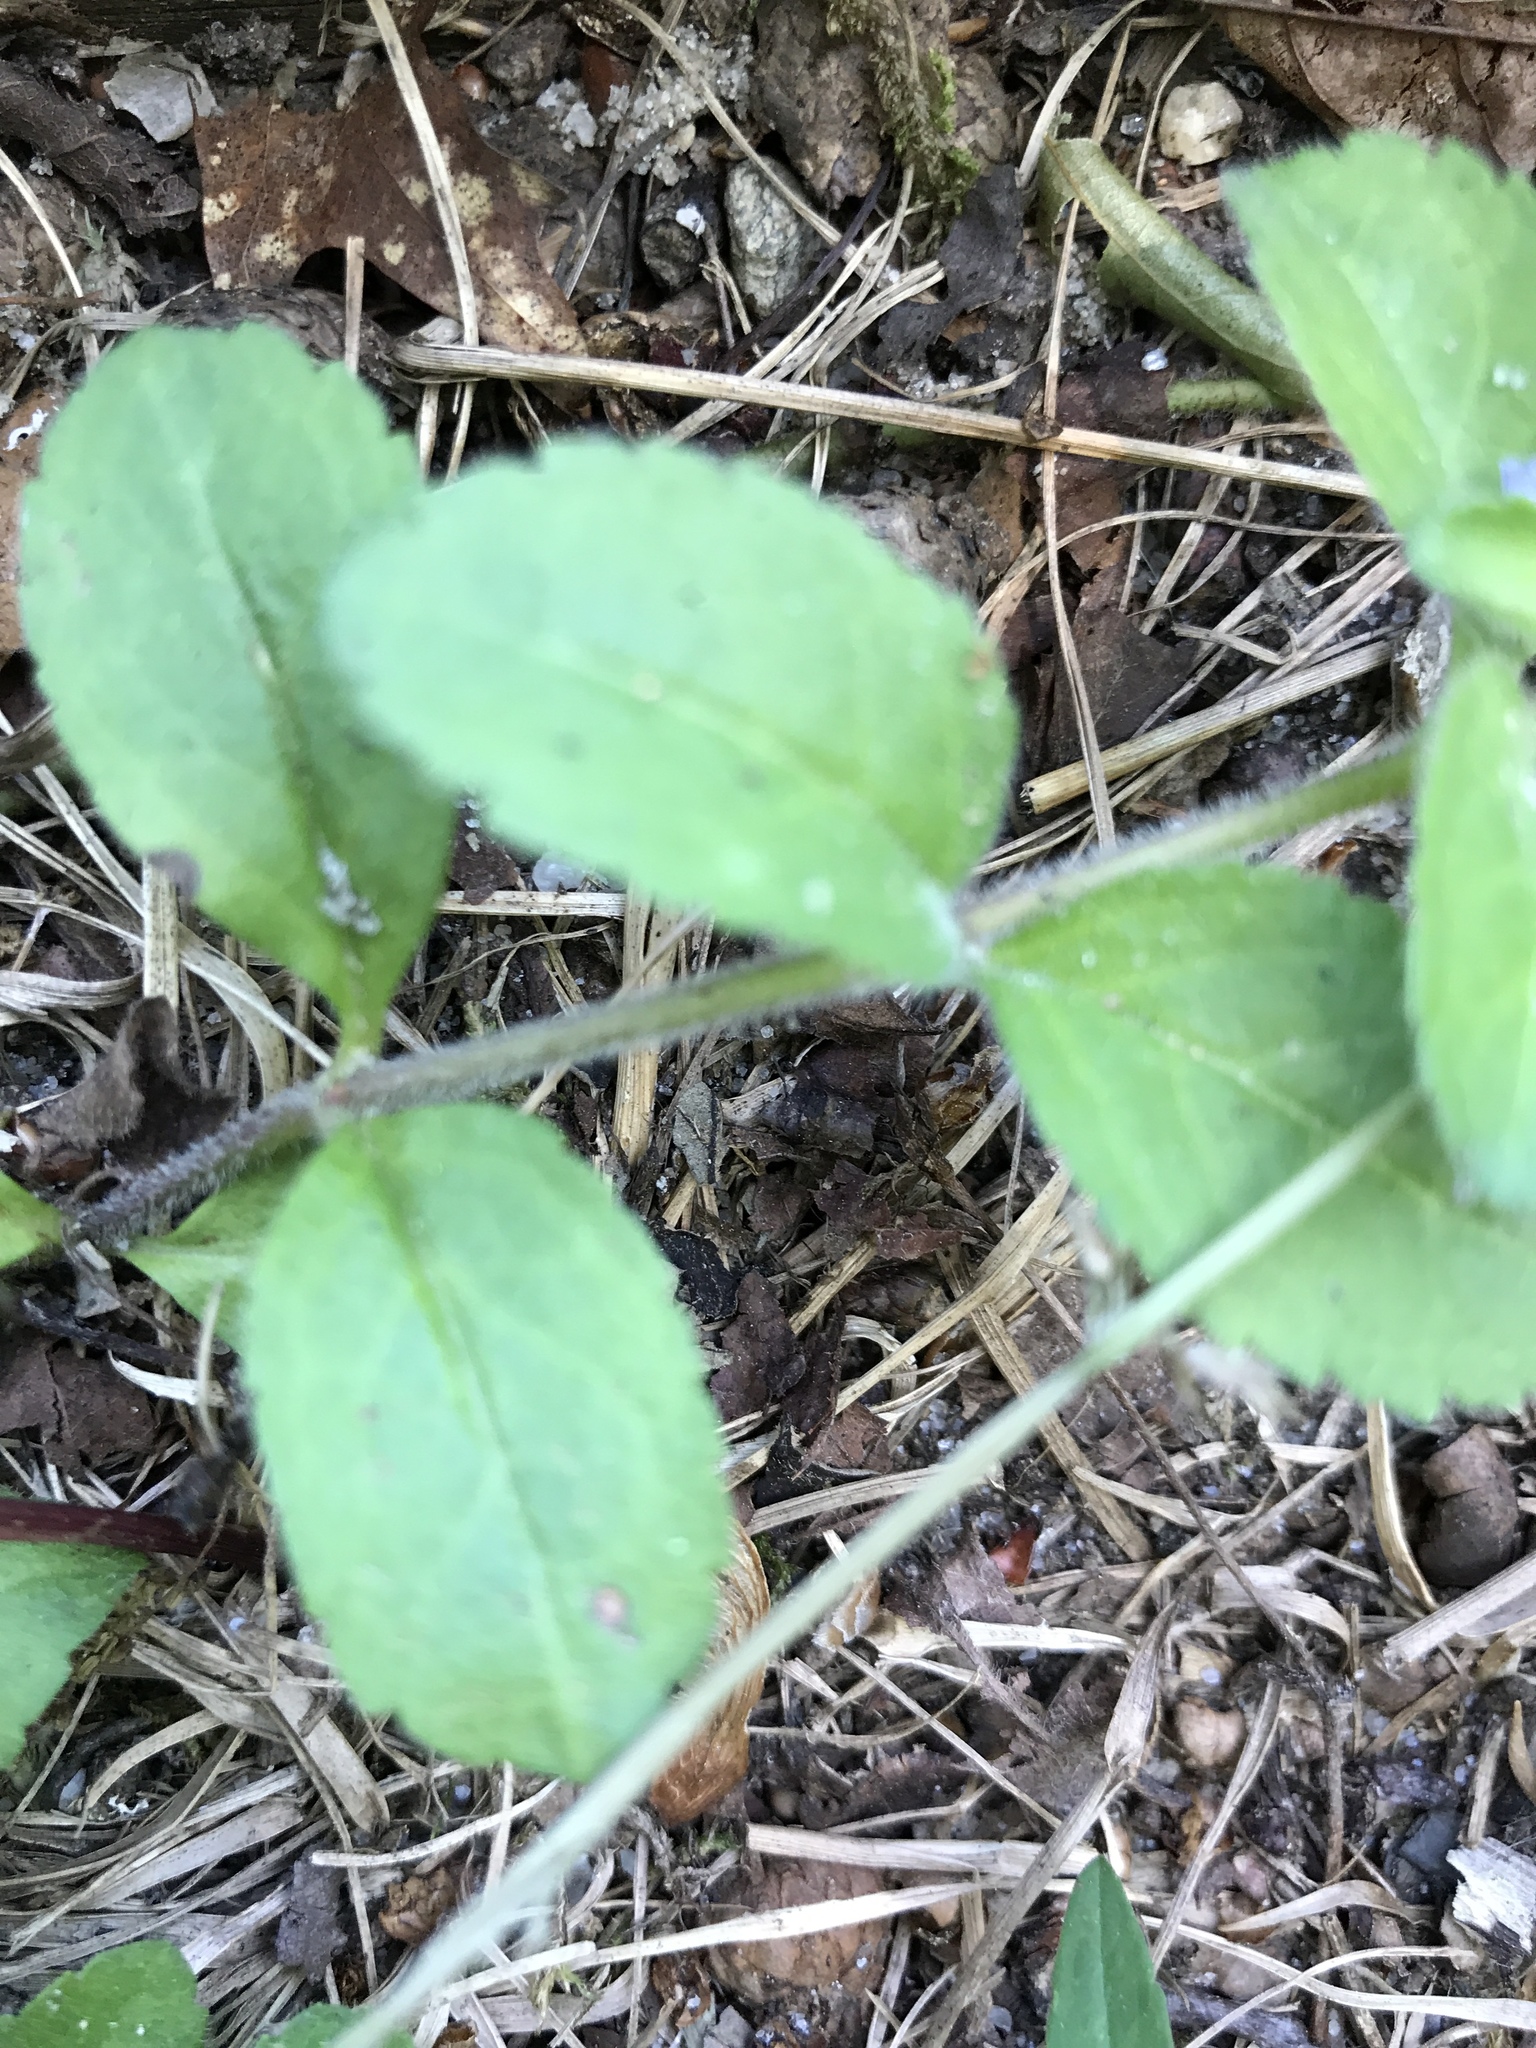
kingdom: Plantae
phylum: Tracheophyta
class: Magnoliopsida
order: Lamiales
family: Plantaginaceae
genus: Veronica
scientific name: Veronica officinalis
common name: Common speedwell
